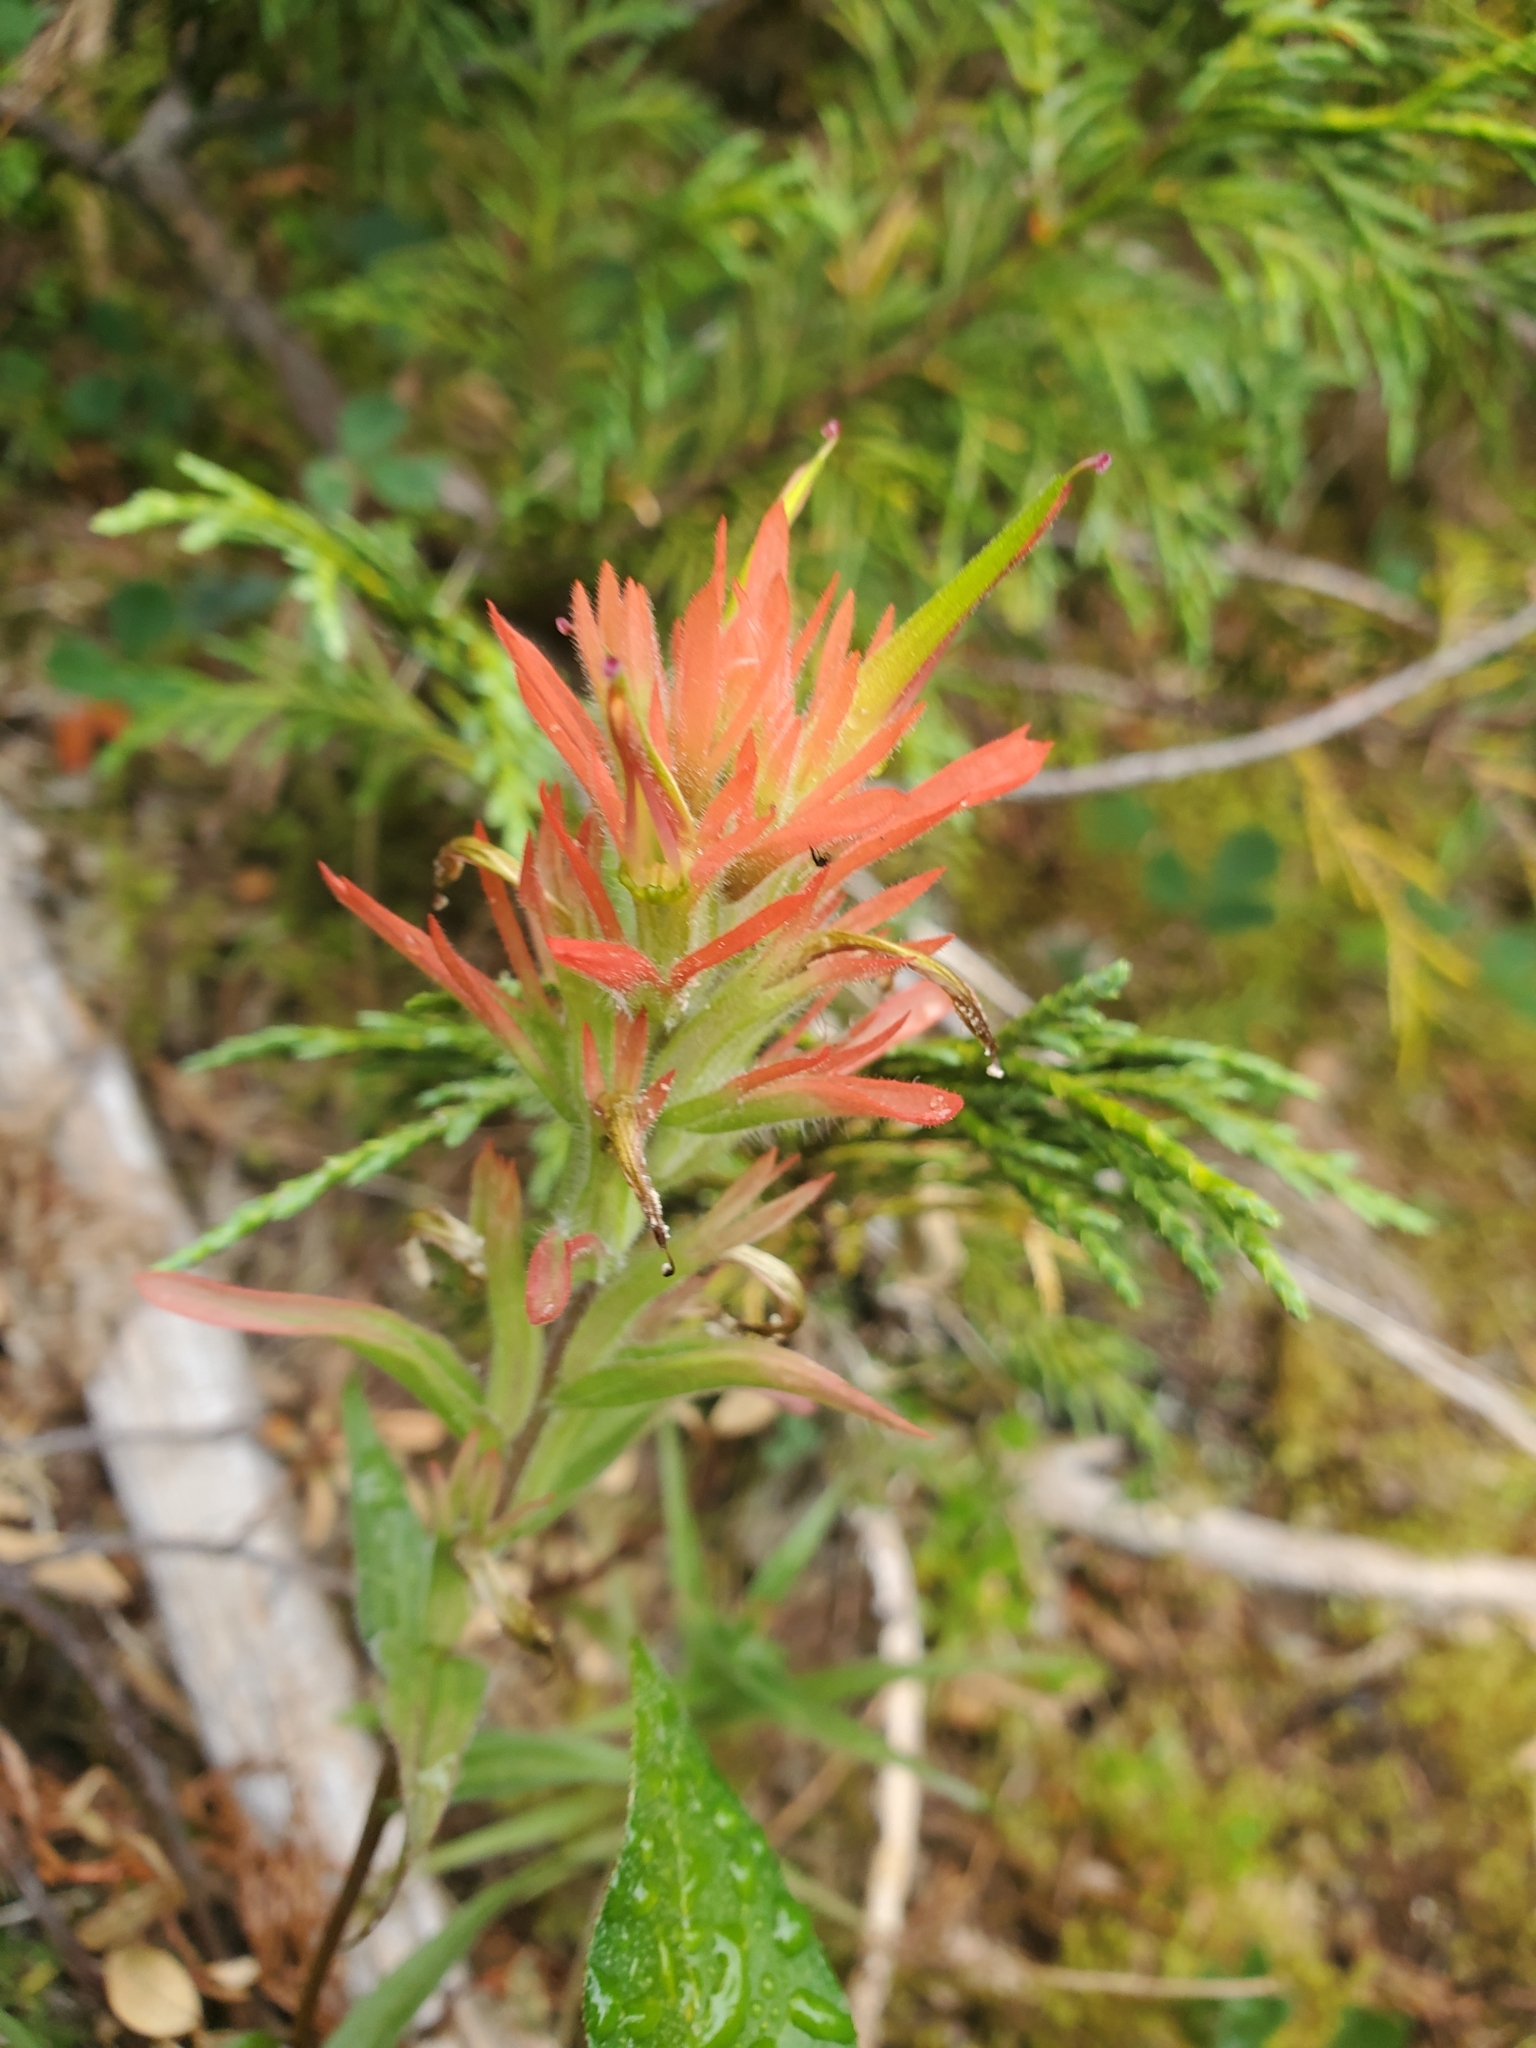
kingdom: Plantae
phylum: Tracheophyta
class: Magnoliopsida
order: Lamiales
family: Orobanchaceae
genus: Castilleja
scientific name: Castilleja miniata
